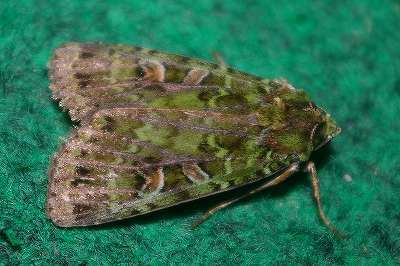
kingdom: Animalia
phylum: Arthropoda
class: Insecta
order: Lepidoptera
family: Noctuidae
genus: Anaplectoides
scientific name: Anaplectoides virens
